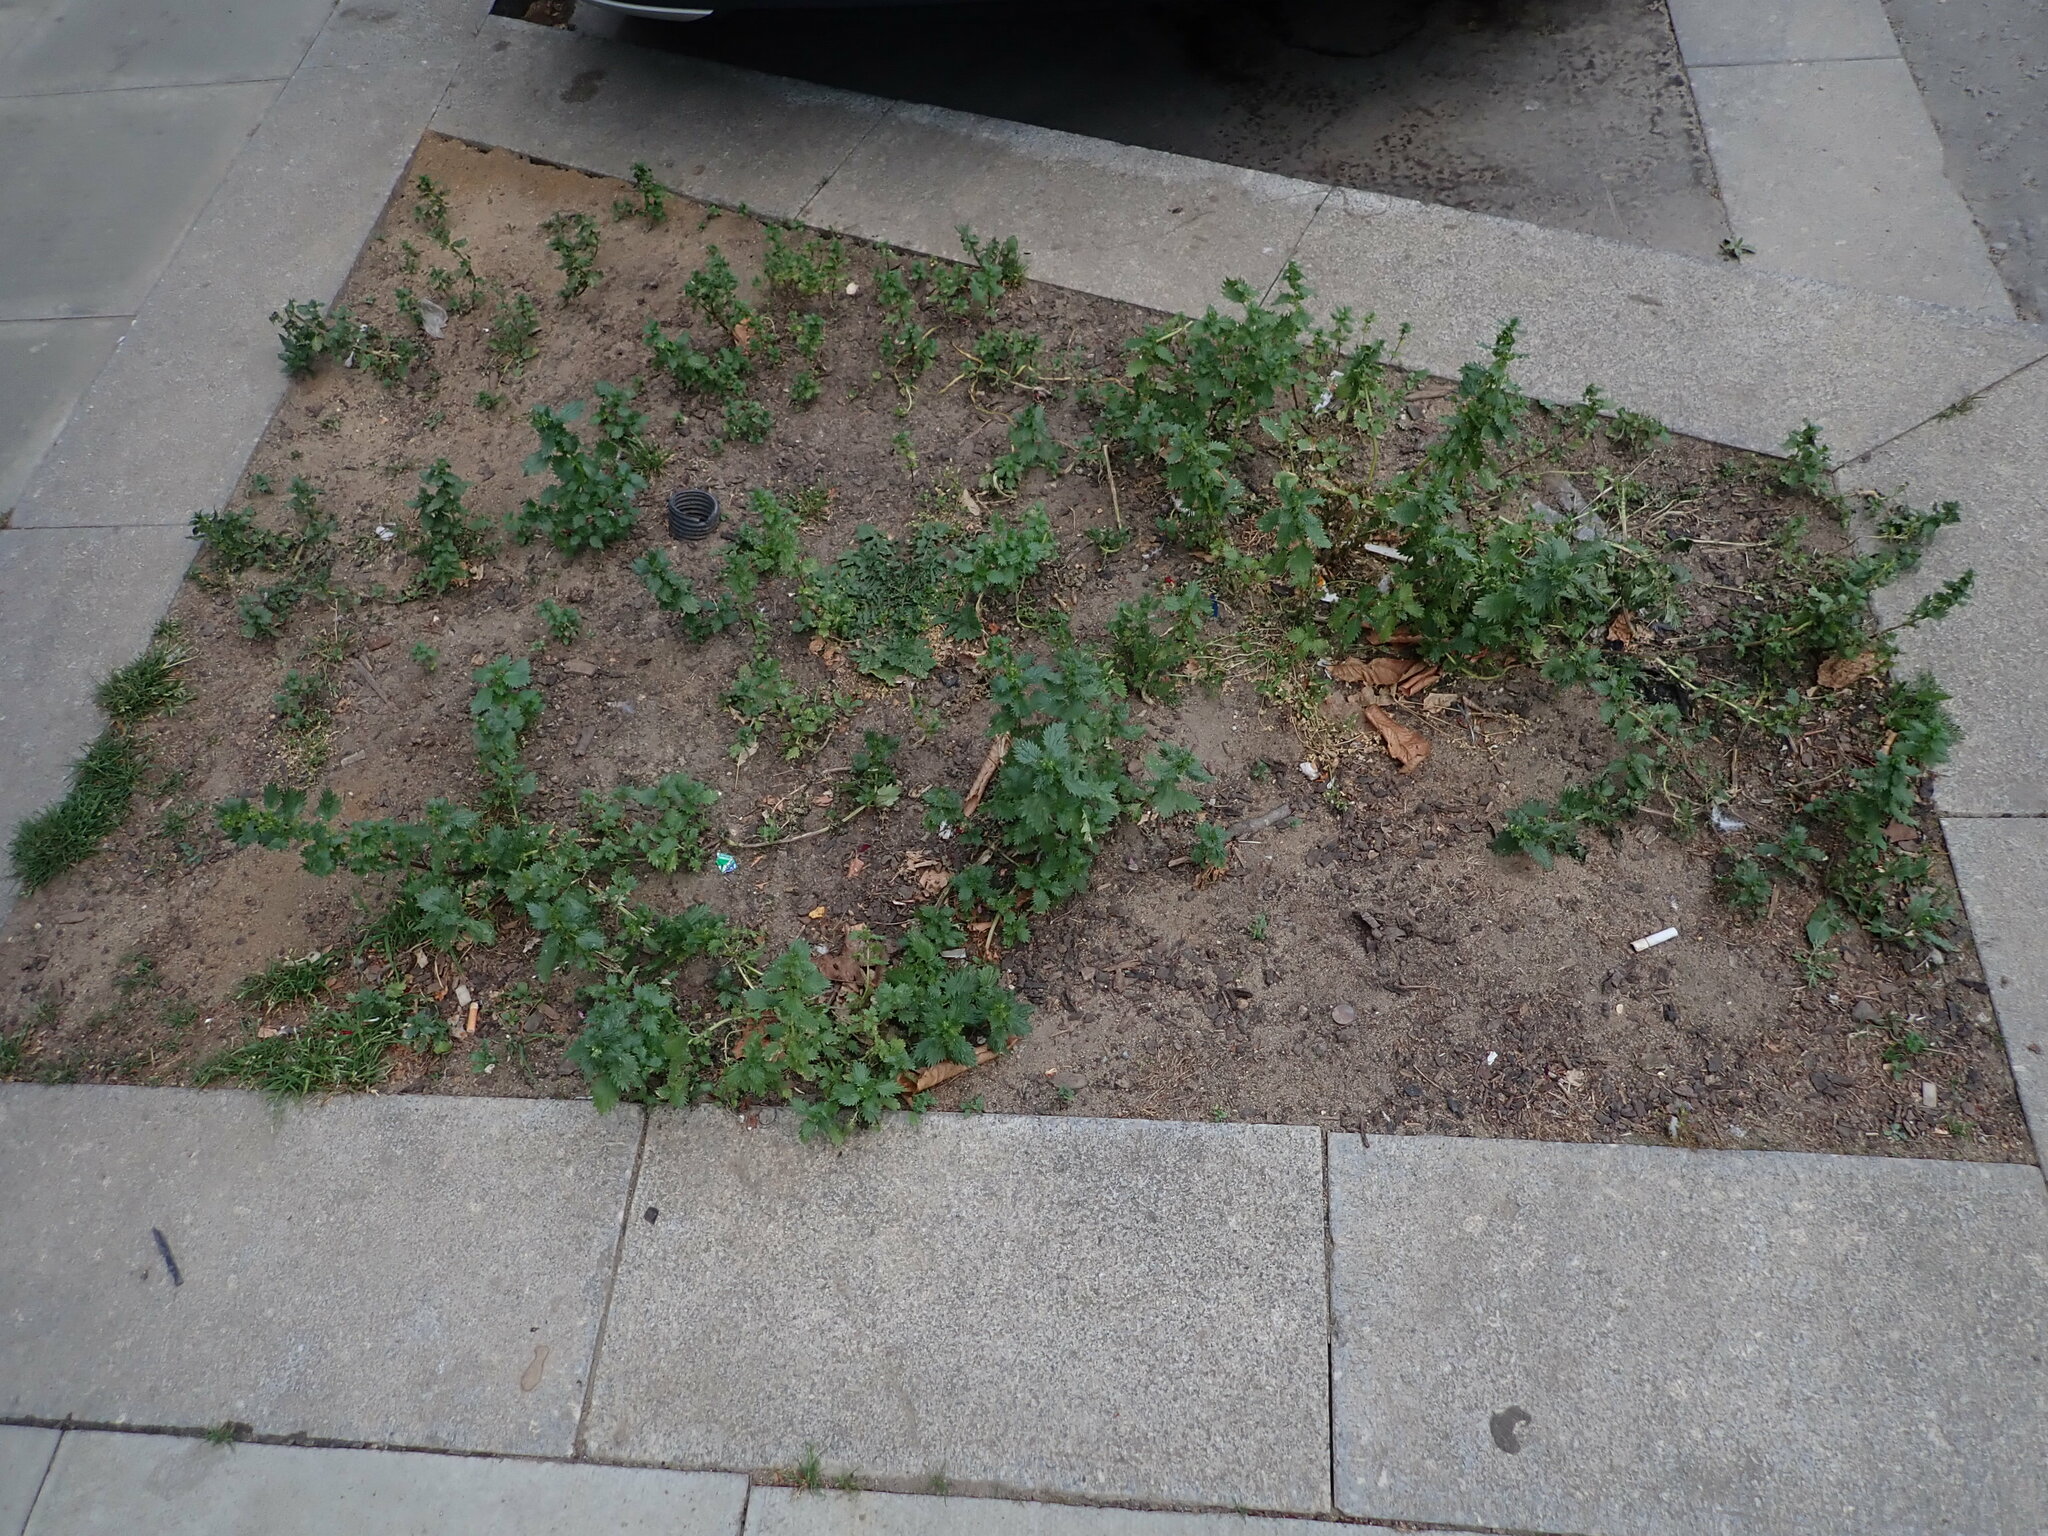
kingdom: Plantae
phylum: Tracheophyta
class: Magnoliopsida
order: Rosales
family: Urticaceae
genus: Urtica
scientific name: Urtica urens
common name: Dwarf nettle
